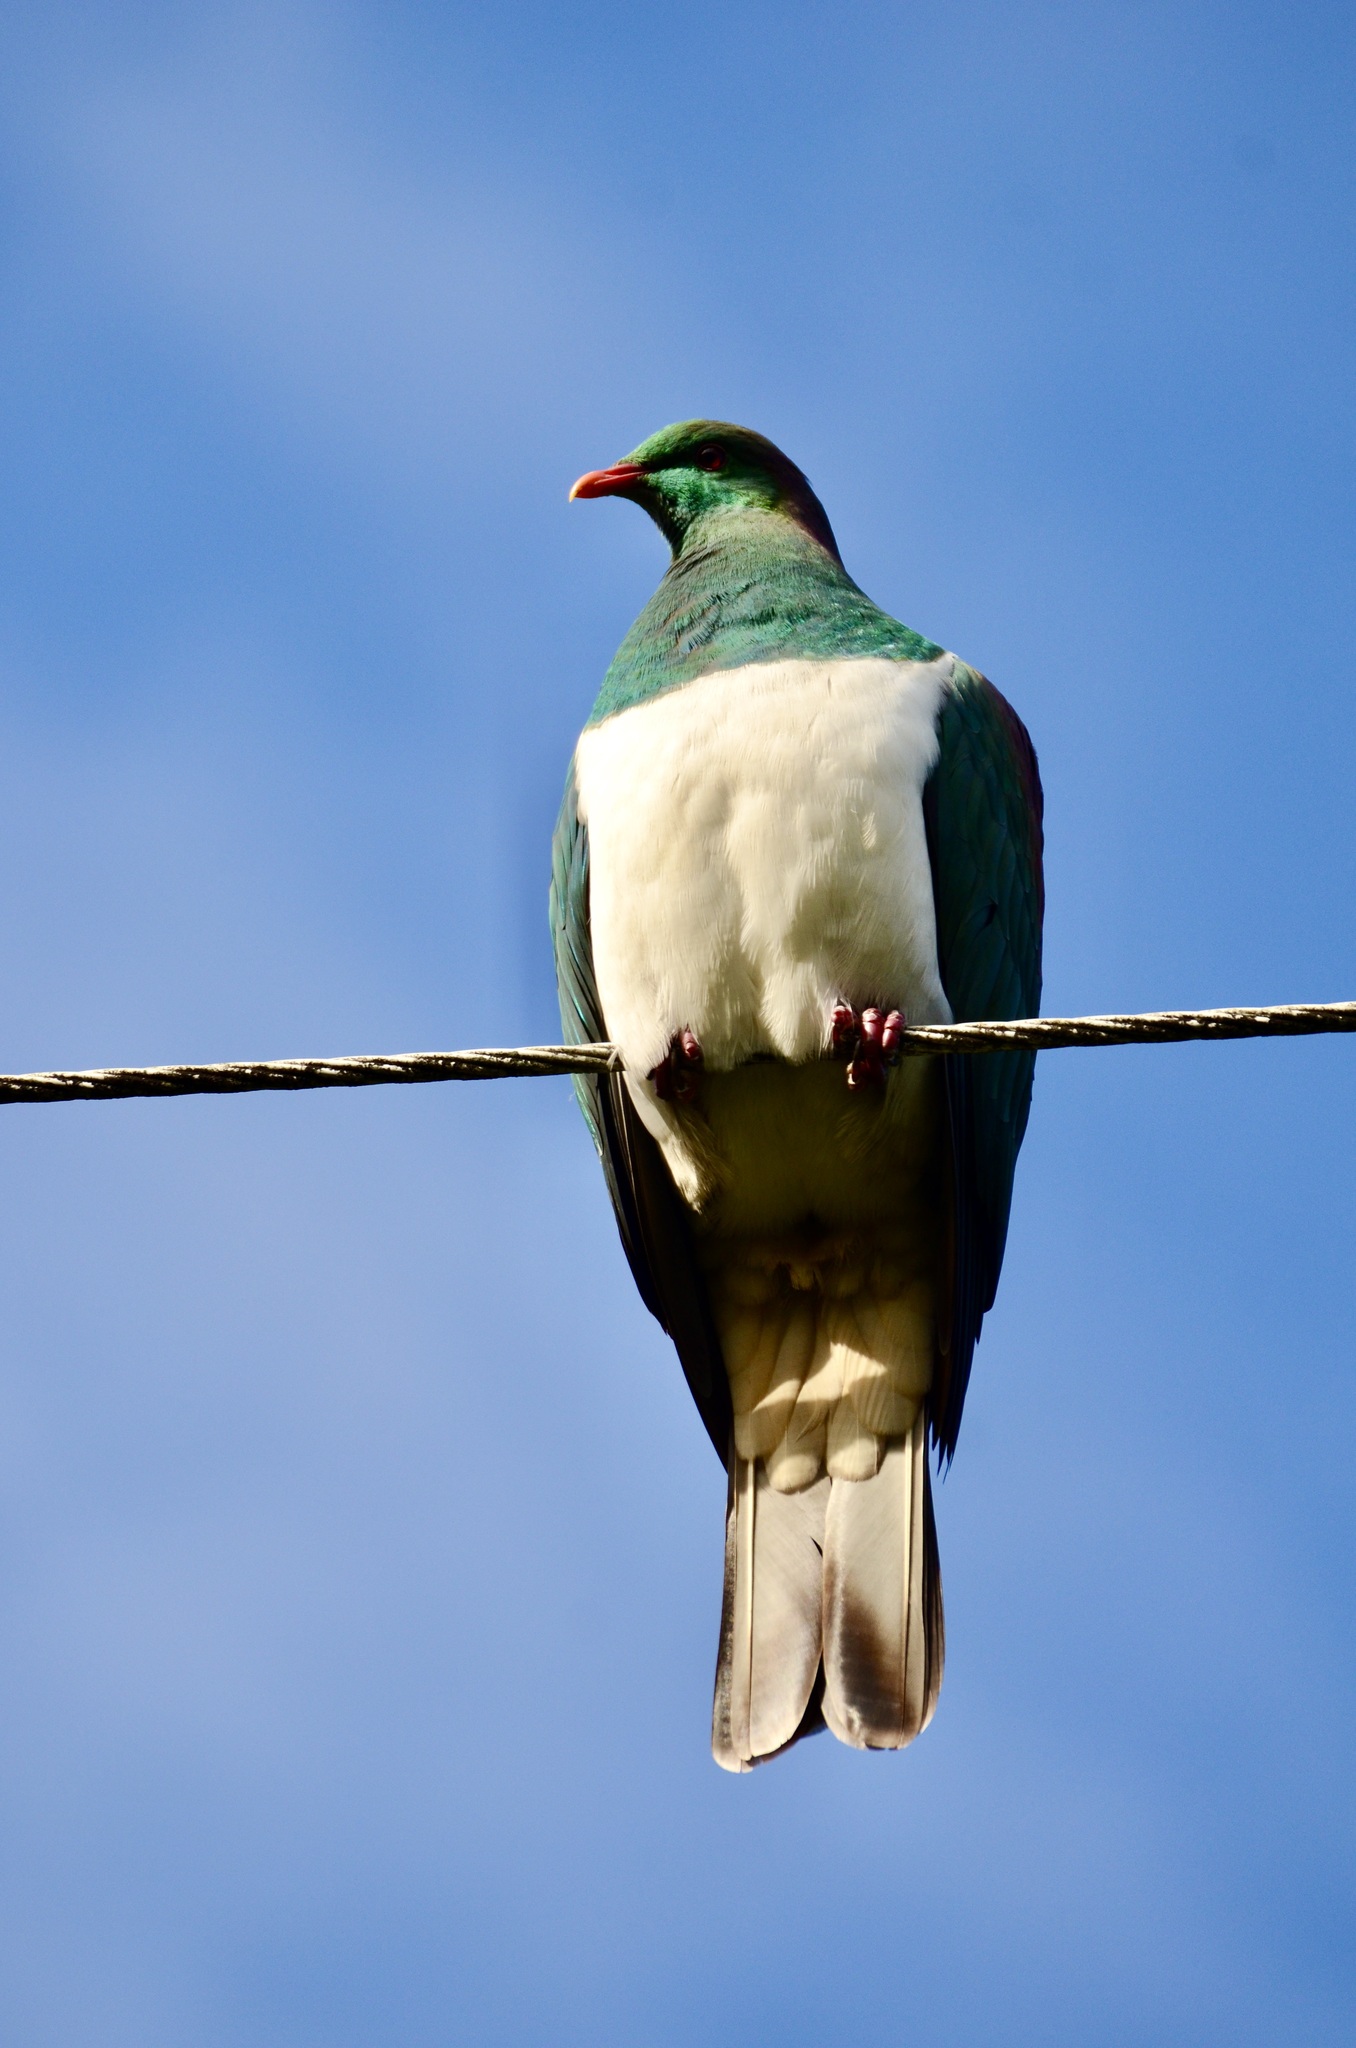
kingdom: Animalia
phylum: Chordata
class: Aves
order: Columbiformes
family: Columbidae
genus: Hemiphaga
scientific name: Hemiphaga novaeseelandiae
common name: New zealand pigeon
